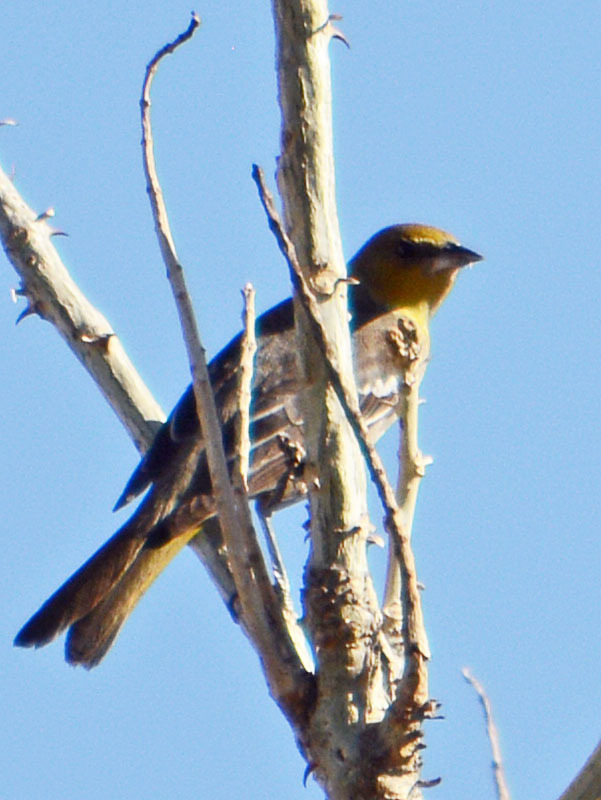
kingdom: Animalia
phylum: Chordata
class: Aves
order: Passeriformes
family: Icteridae
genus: Icterus
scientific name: Icterus abeillei
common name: Black-backed oriole
